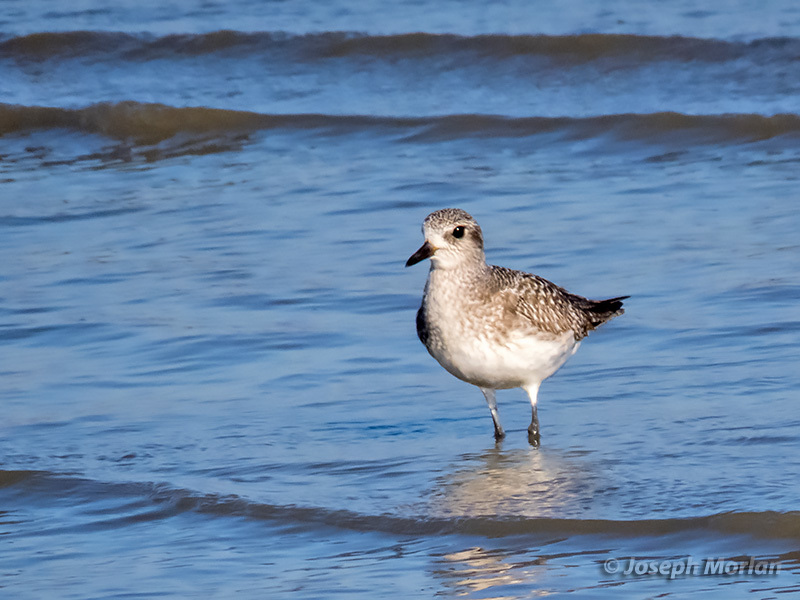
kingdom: Animalia
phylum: Chordata
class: Aves
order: Charadriiformes
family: Charadriidae
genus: Pluvialis
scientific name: Pluvialis squatarola
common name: Grey plover
